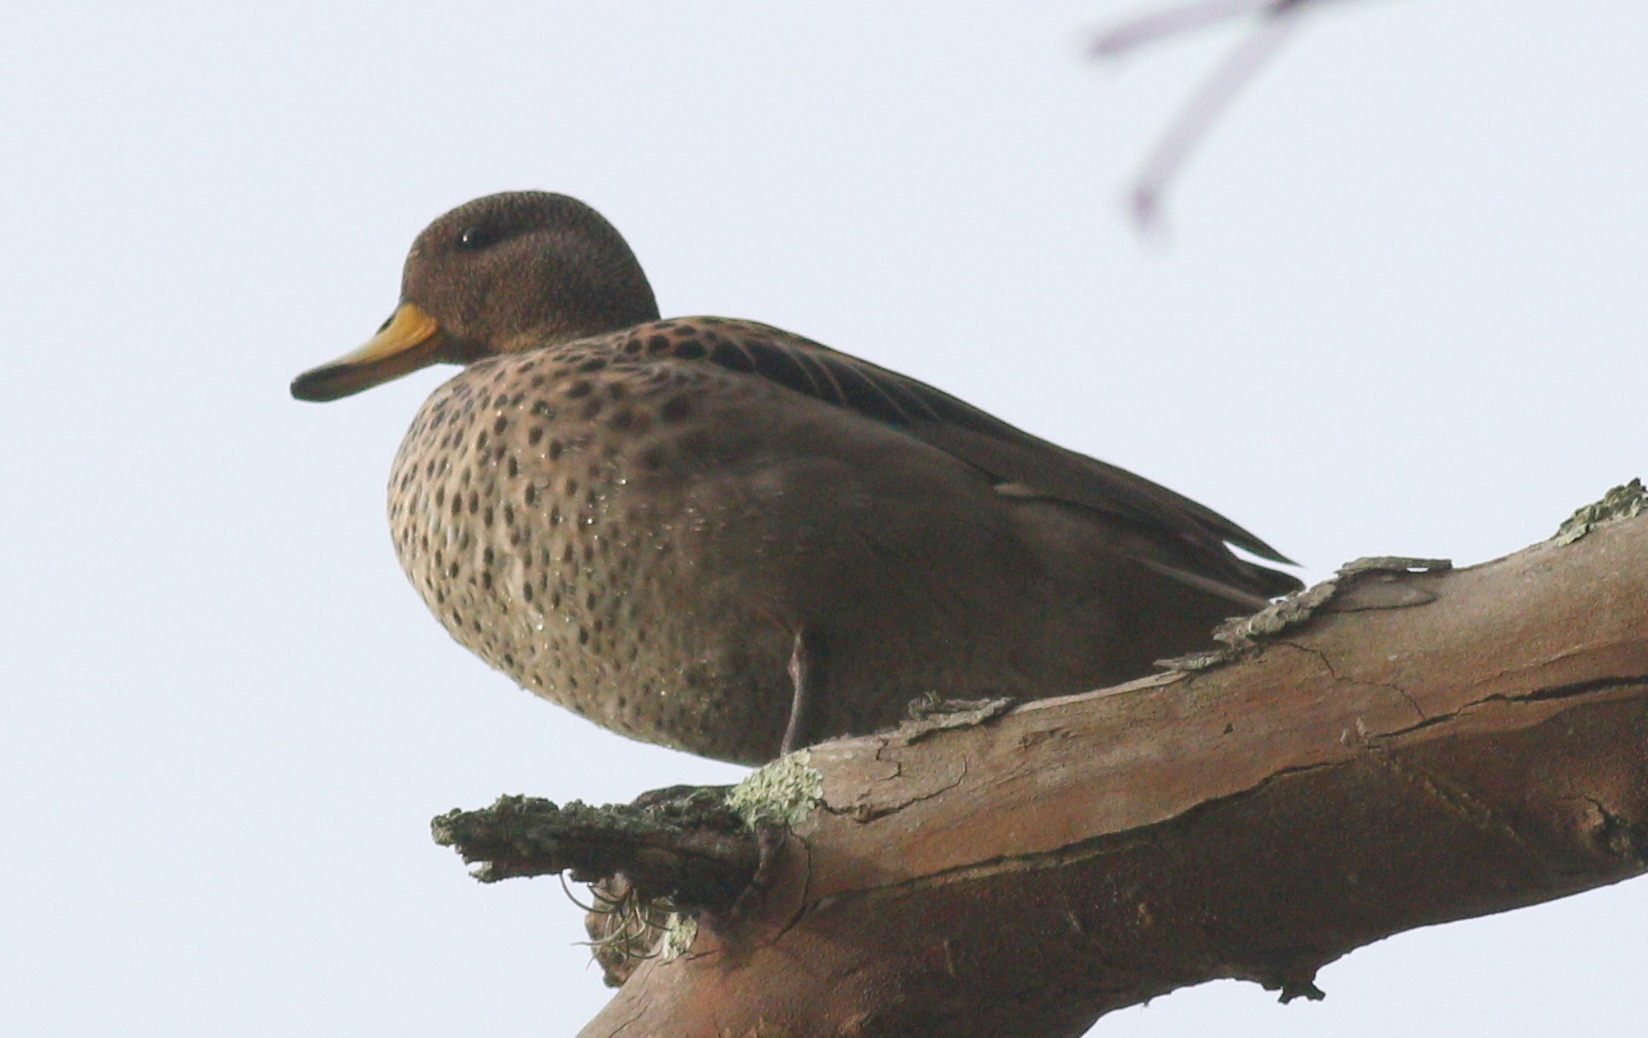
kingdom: Animalia
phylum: Chordata
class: Aves
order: Anseriformes
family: Anatidae
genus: Anas
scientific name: Anas georgica
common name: Yellow-billed pintail
